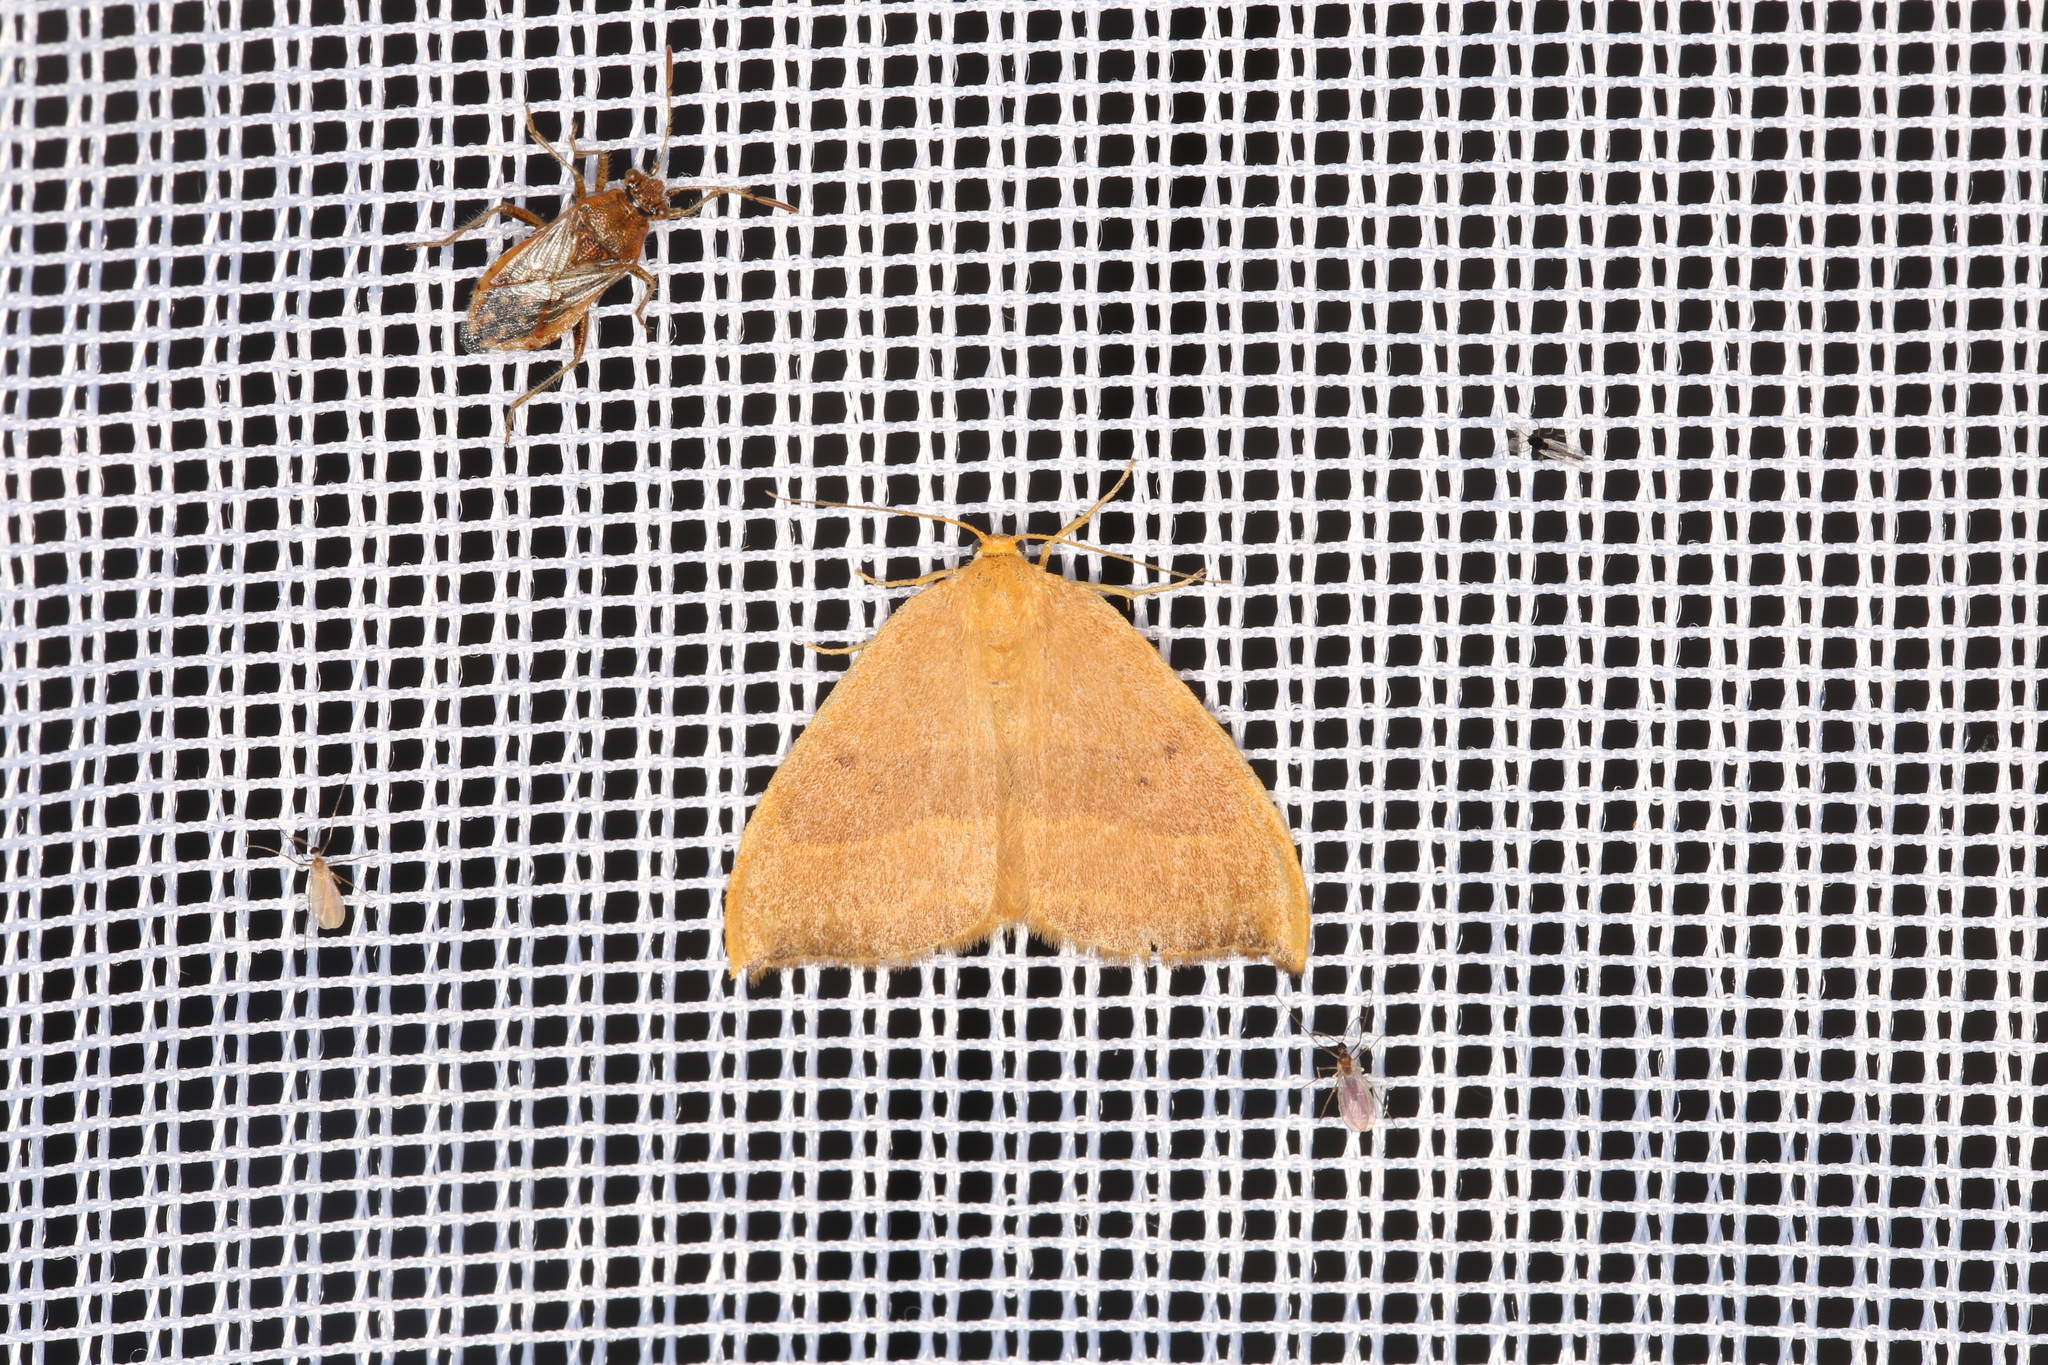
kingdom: Animalia
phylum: Arthropoda
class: Insecta
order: Lepidoptera
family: Drepanidae
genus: Watsonalla
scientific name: Watsonalla cultraria
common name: Barred hook-tip
